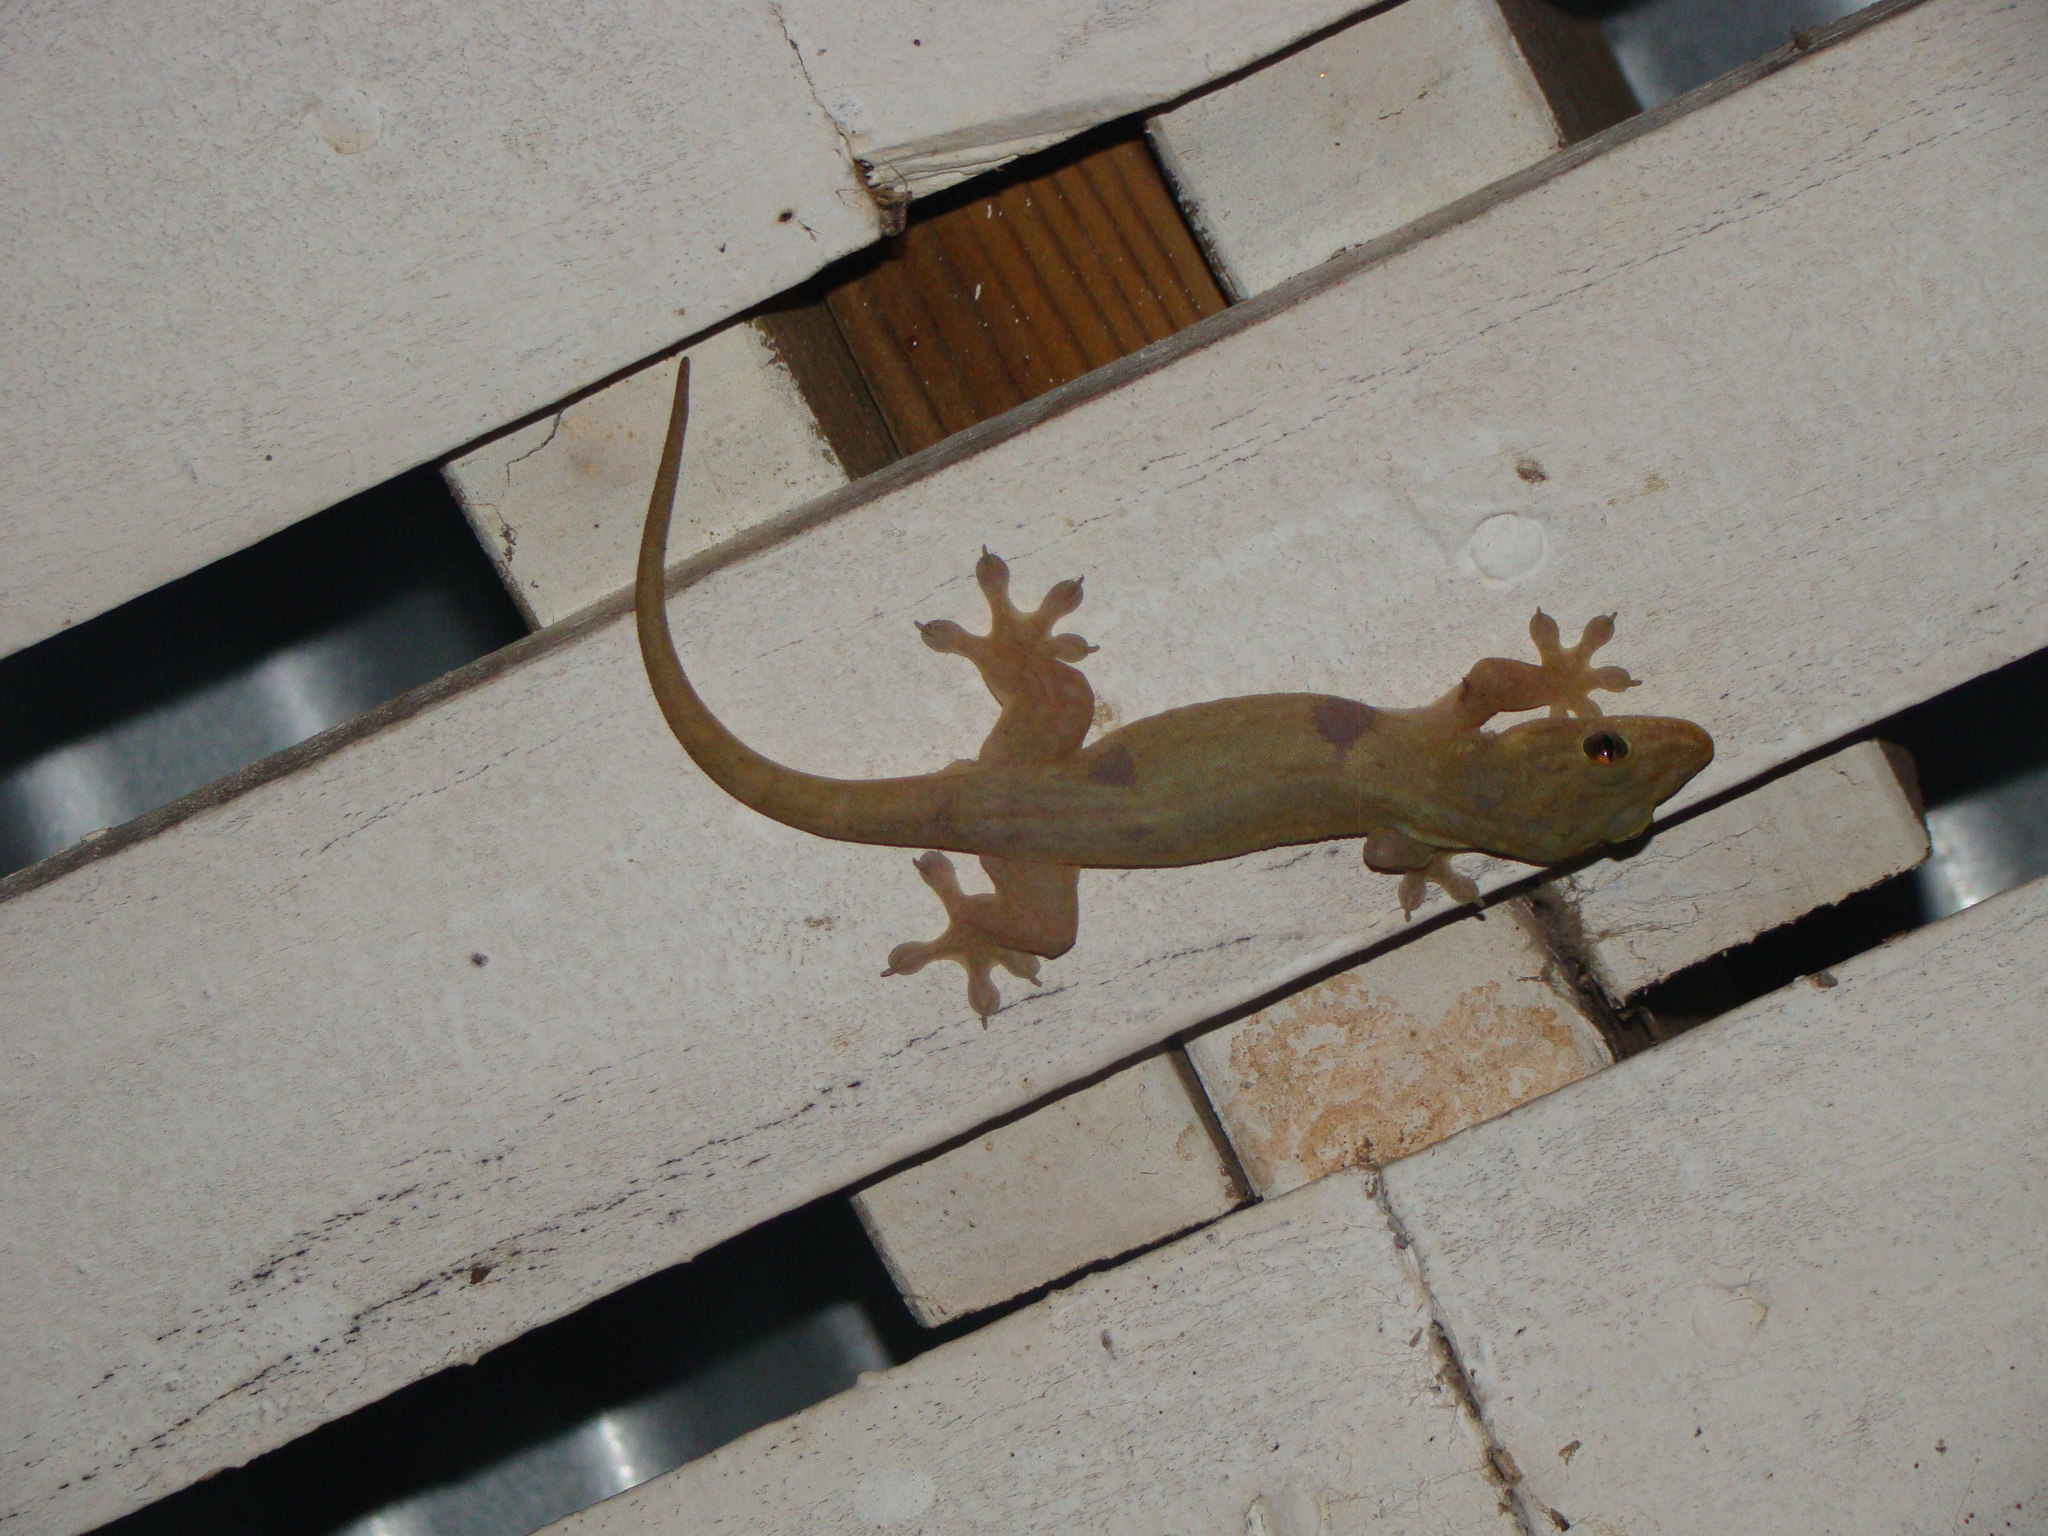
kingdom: Animalia
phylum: Chordata
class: Squamata
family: Gekkonidae
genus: Gehyra
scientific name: Gehyra oceanica
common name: Pacific dtella
